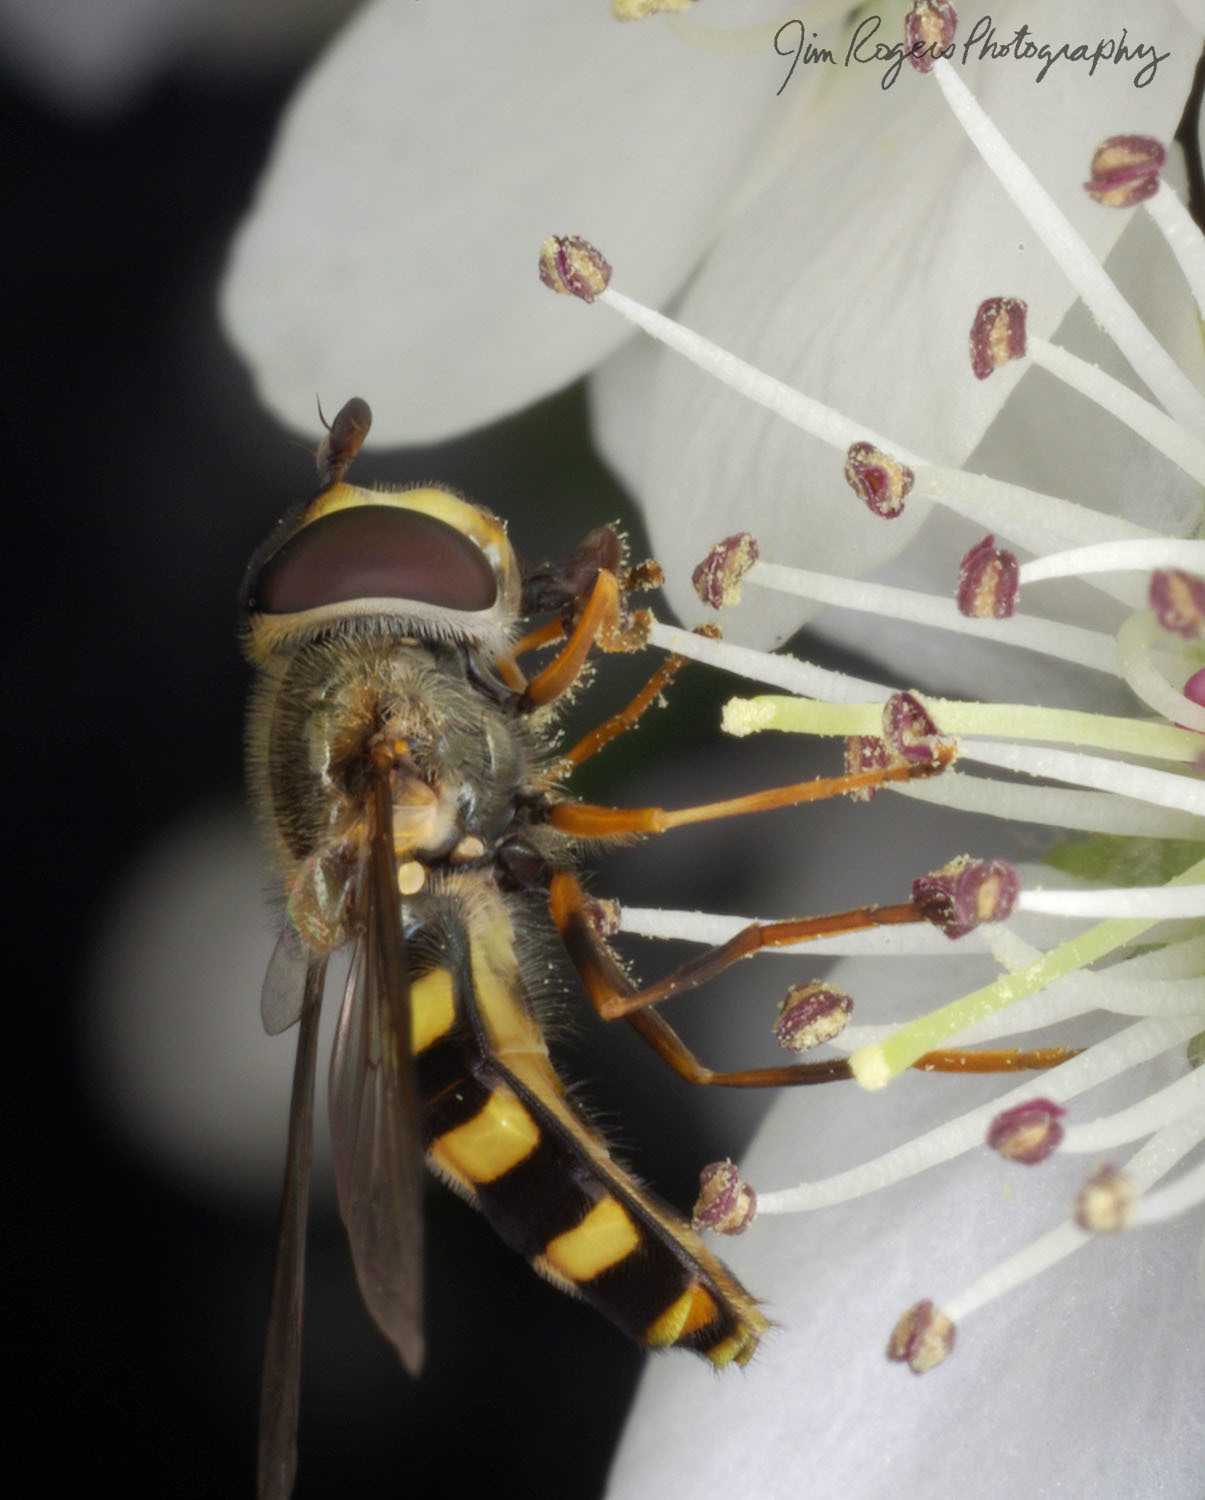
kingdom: Animalia
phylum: Arthropoda
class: Insecta
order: Diptera
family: Syrphidae
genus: Eupeodes
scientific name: Eupeodes
